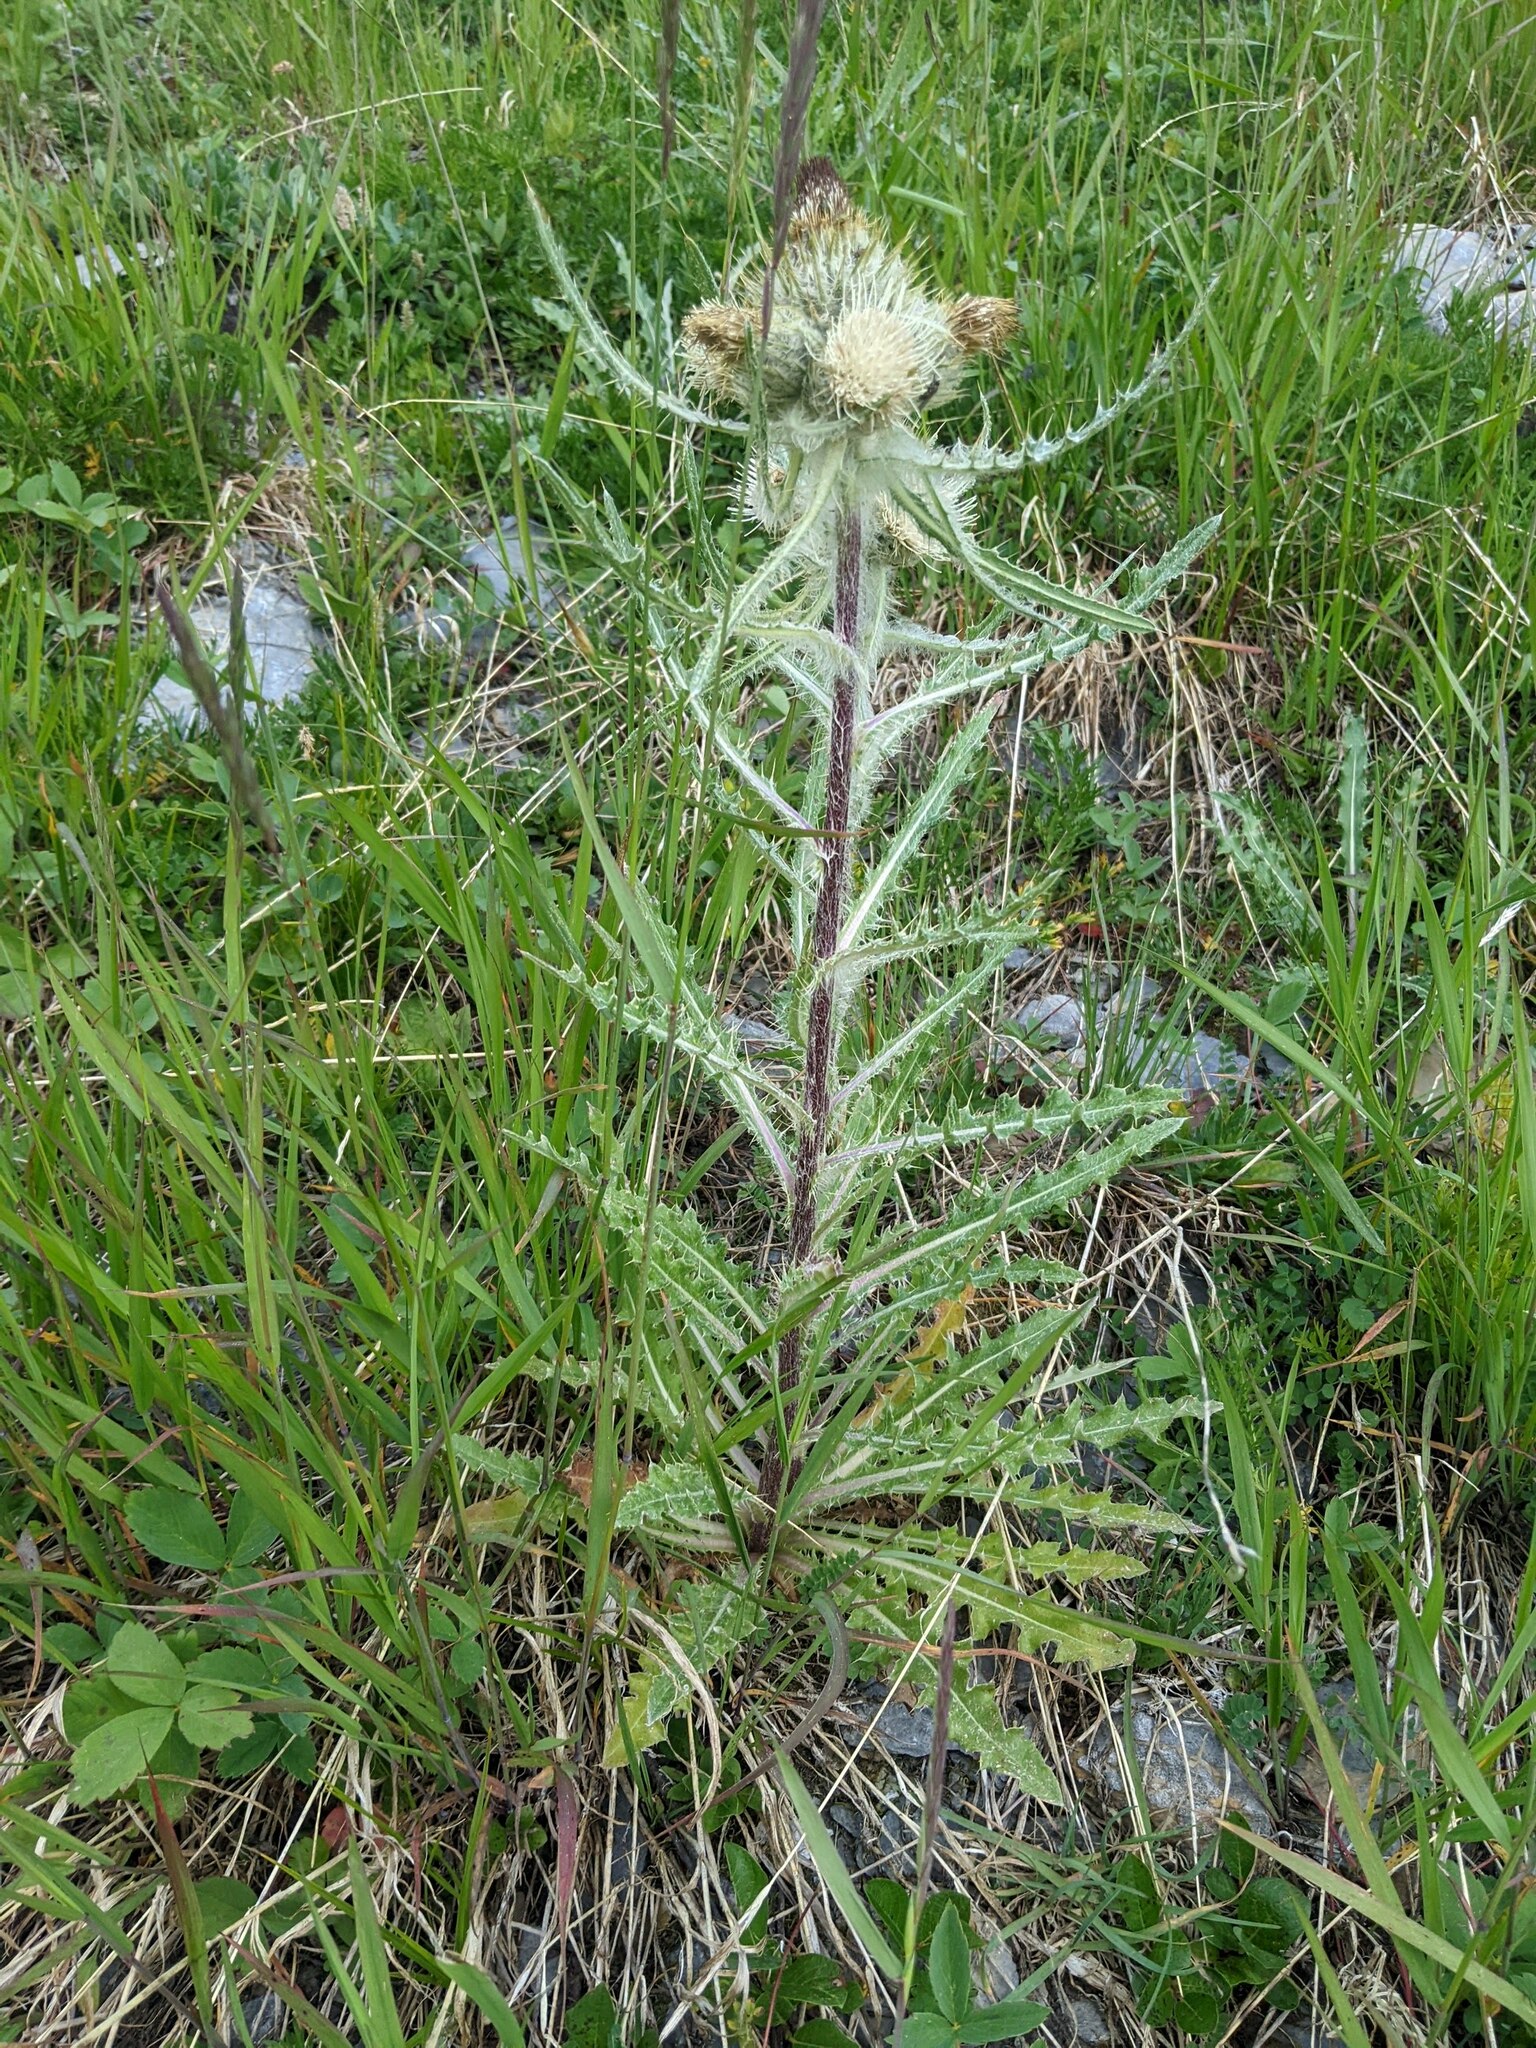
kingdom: Plantae
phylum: Tracheophyta
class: Magnoliopsida
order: Asterales
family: Asteraceae
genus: Cirsium
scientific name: Cirsium hookerianum
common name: Hooker's thistle
